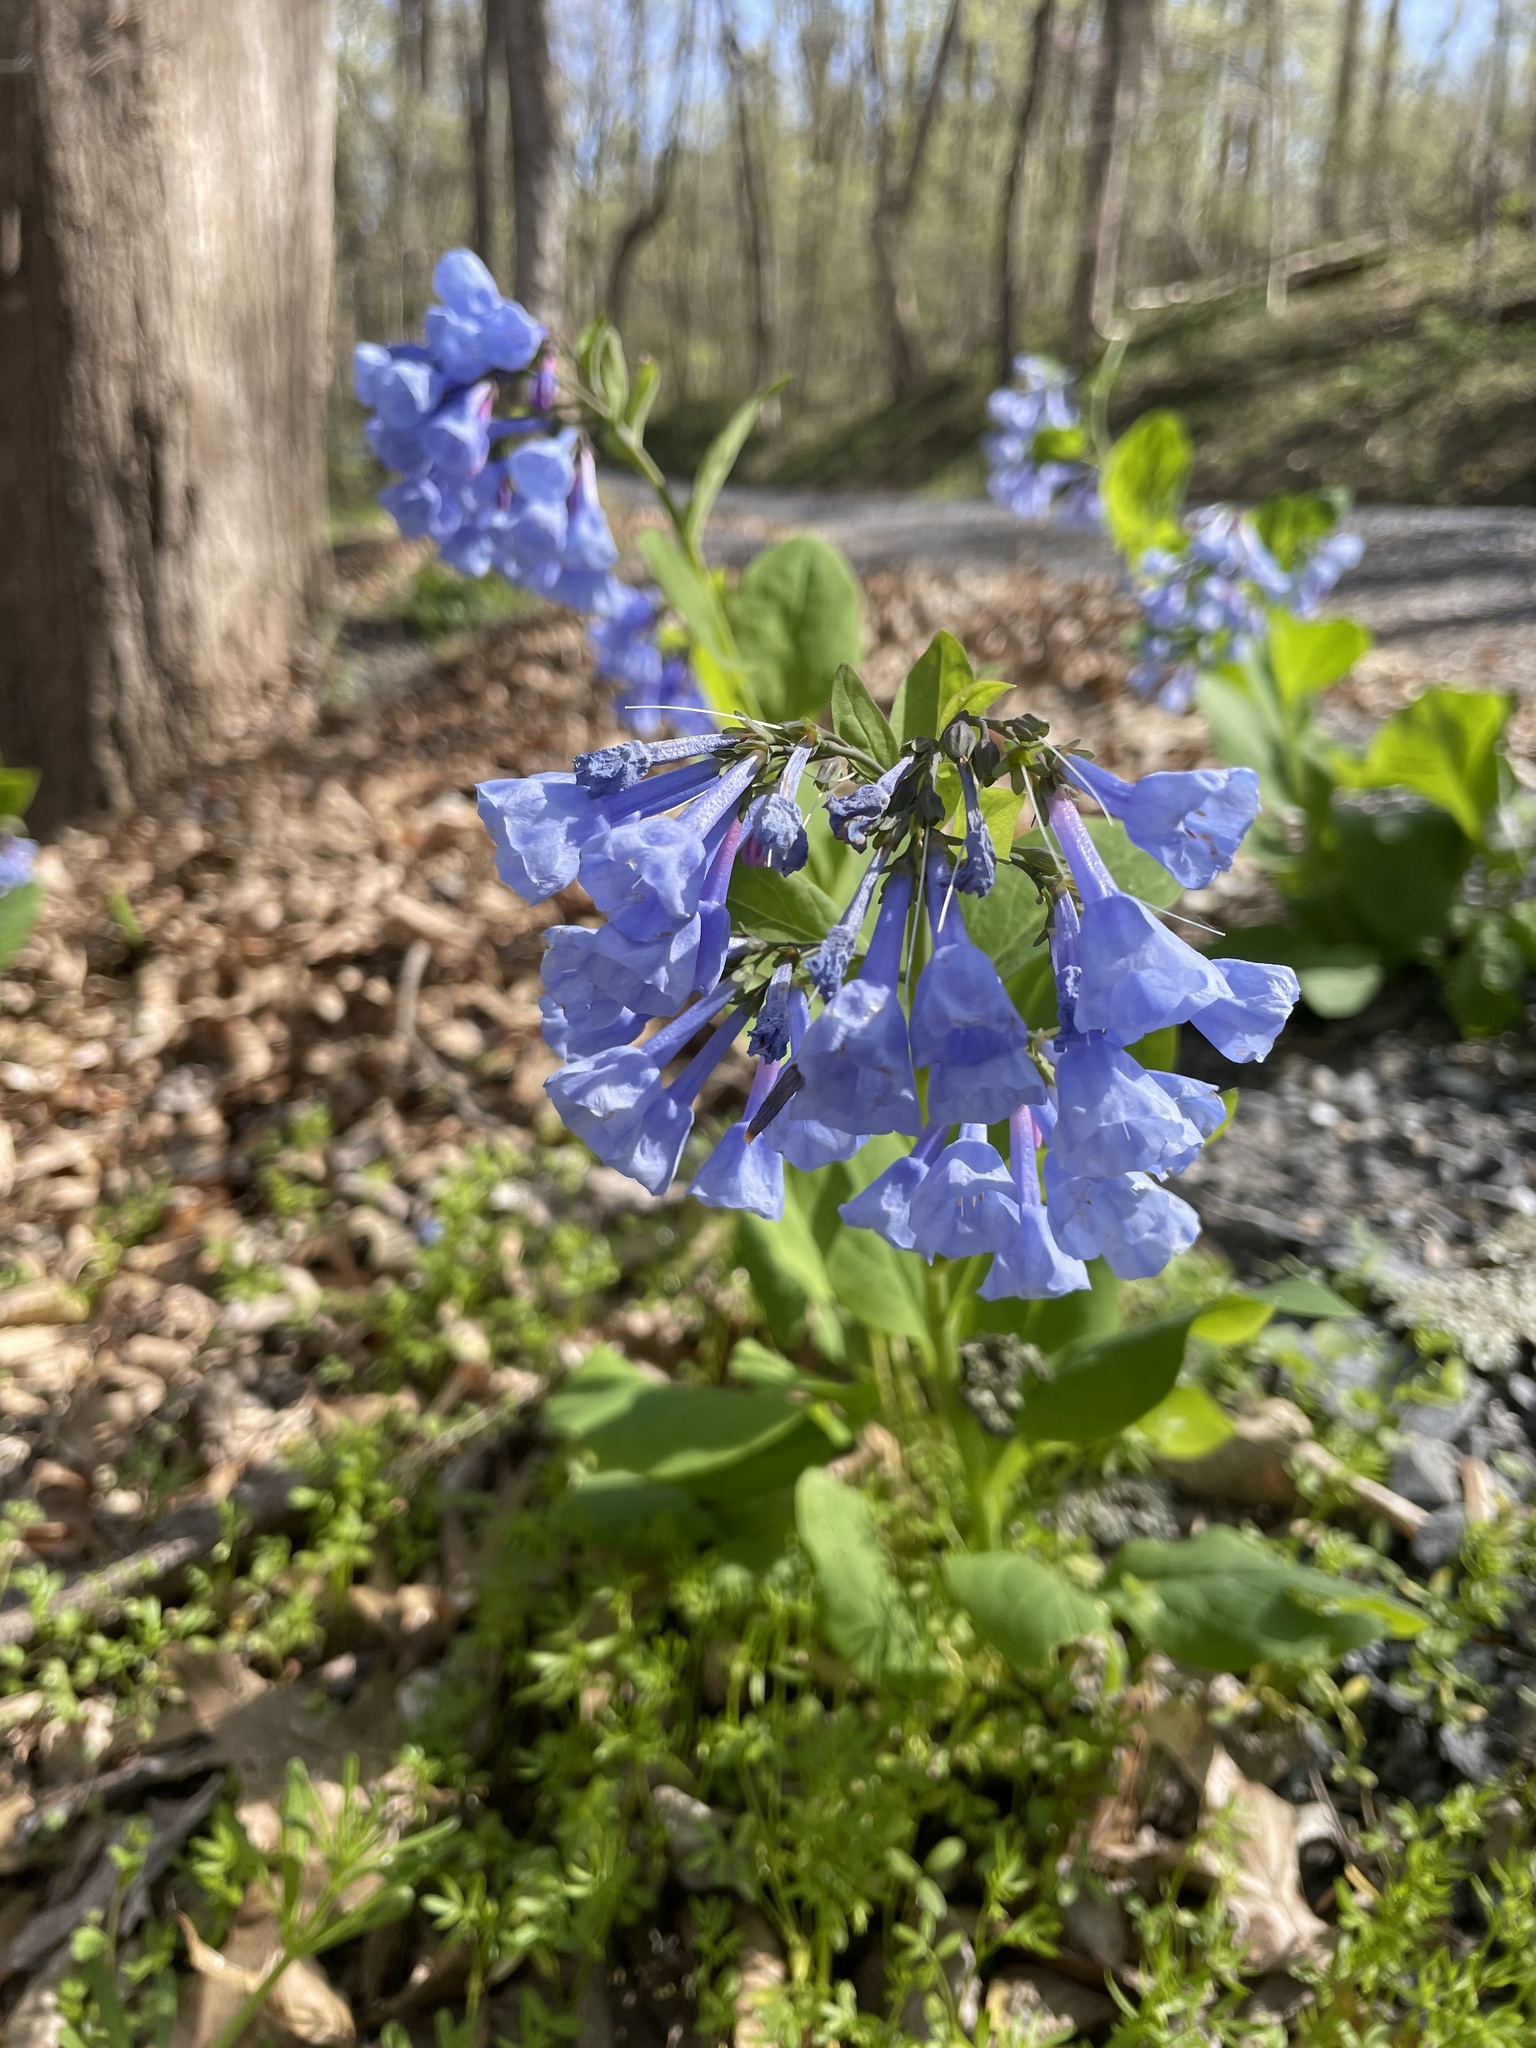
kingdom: Plantae
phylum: Tracheophyta
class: Magnoliopsida
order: Boraginales
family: Boraginaceae
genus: Mertensia
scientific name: Mertensia virginica
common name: Virginia bluebells
